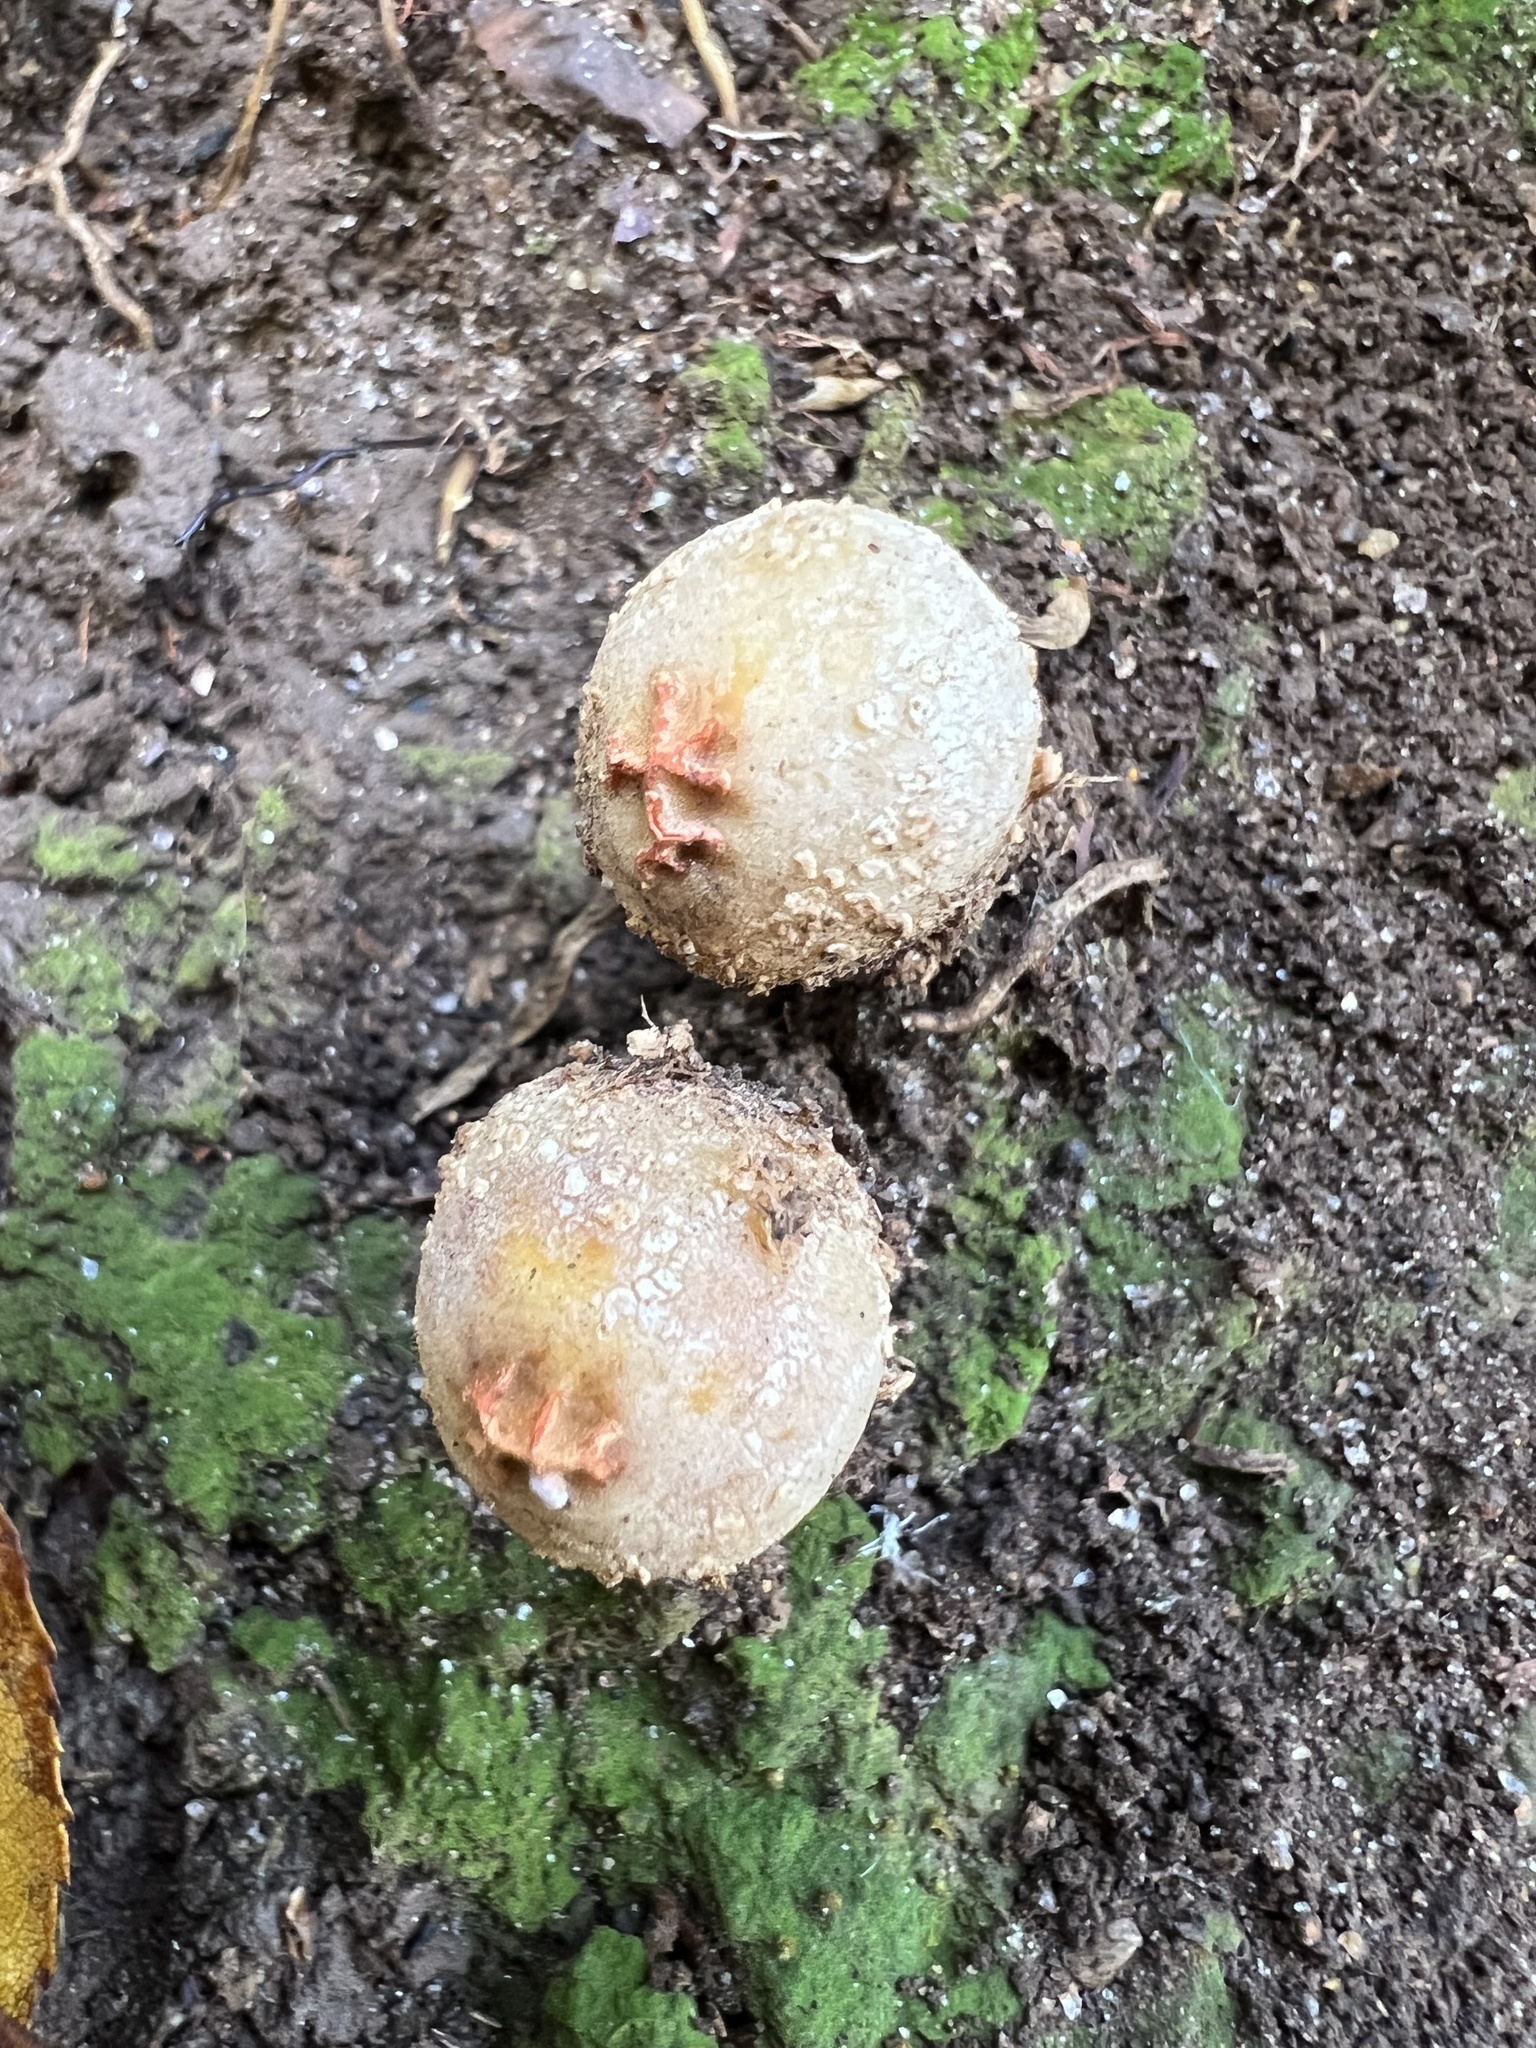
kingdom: Fungi
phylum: Basidiomycota
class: Agaricomycetes
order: Boletales
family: Calostomataceae
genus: Calostoma
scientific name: Calostoma ravenelii
